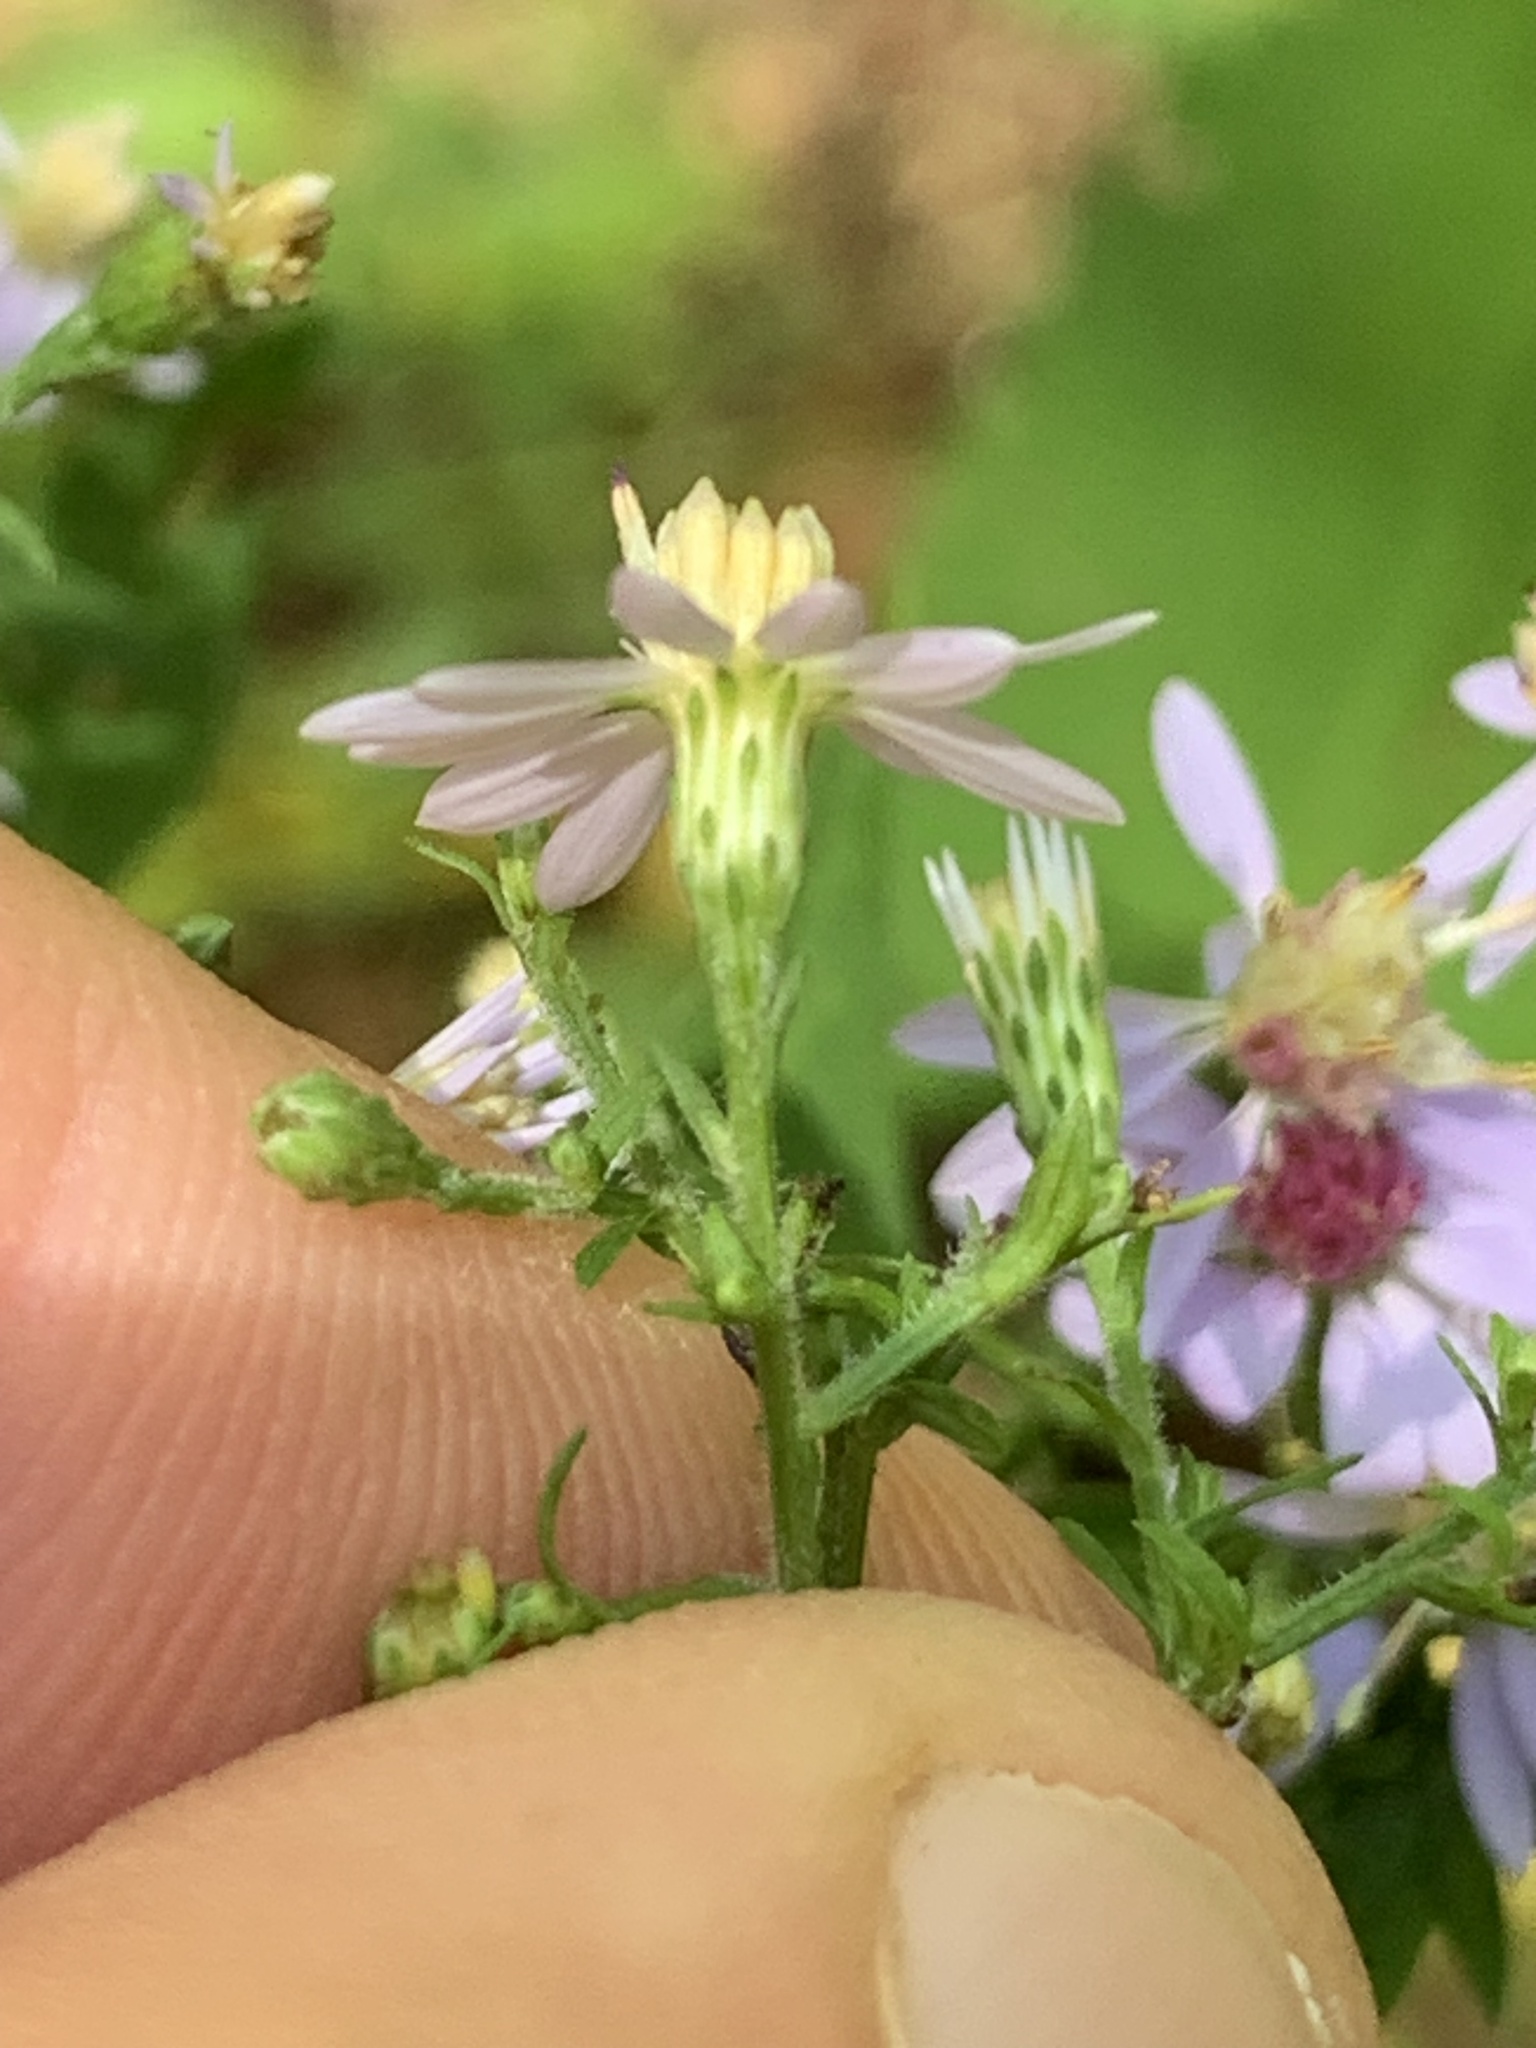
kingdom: Plantae
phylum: Tracheophyta
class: Magnoliopsida
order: Asterales
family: Asteraceae
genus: Symphyotrichum
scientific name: Symphyotrichum cordifolium
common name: Beeweed
